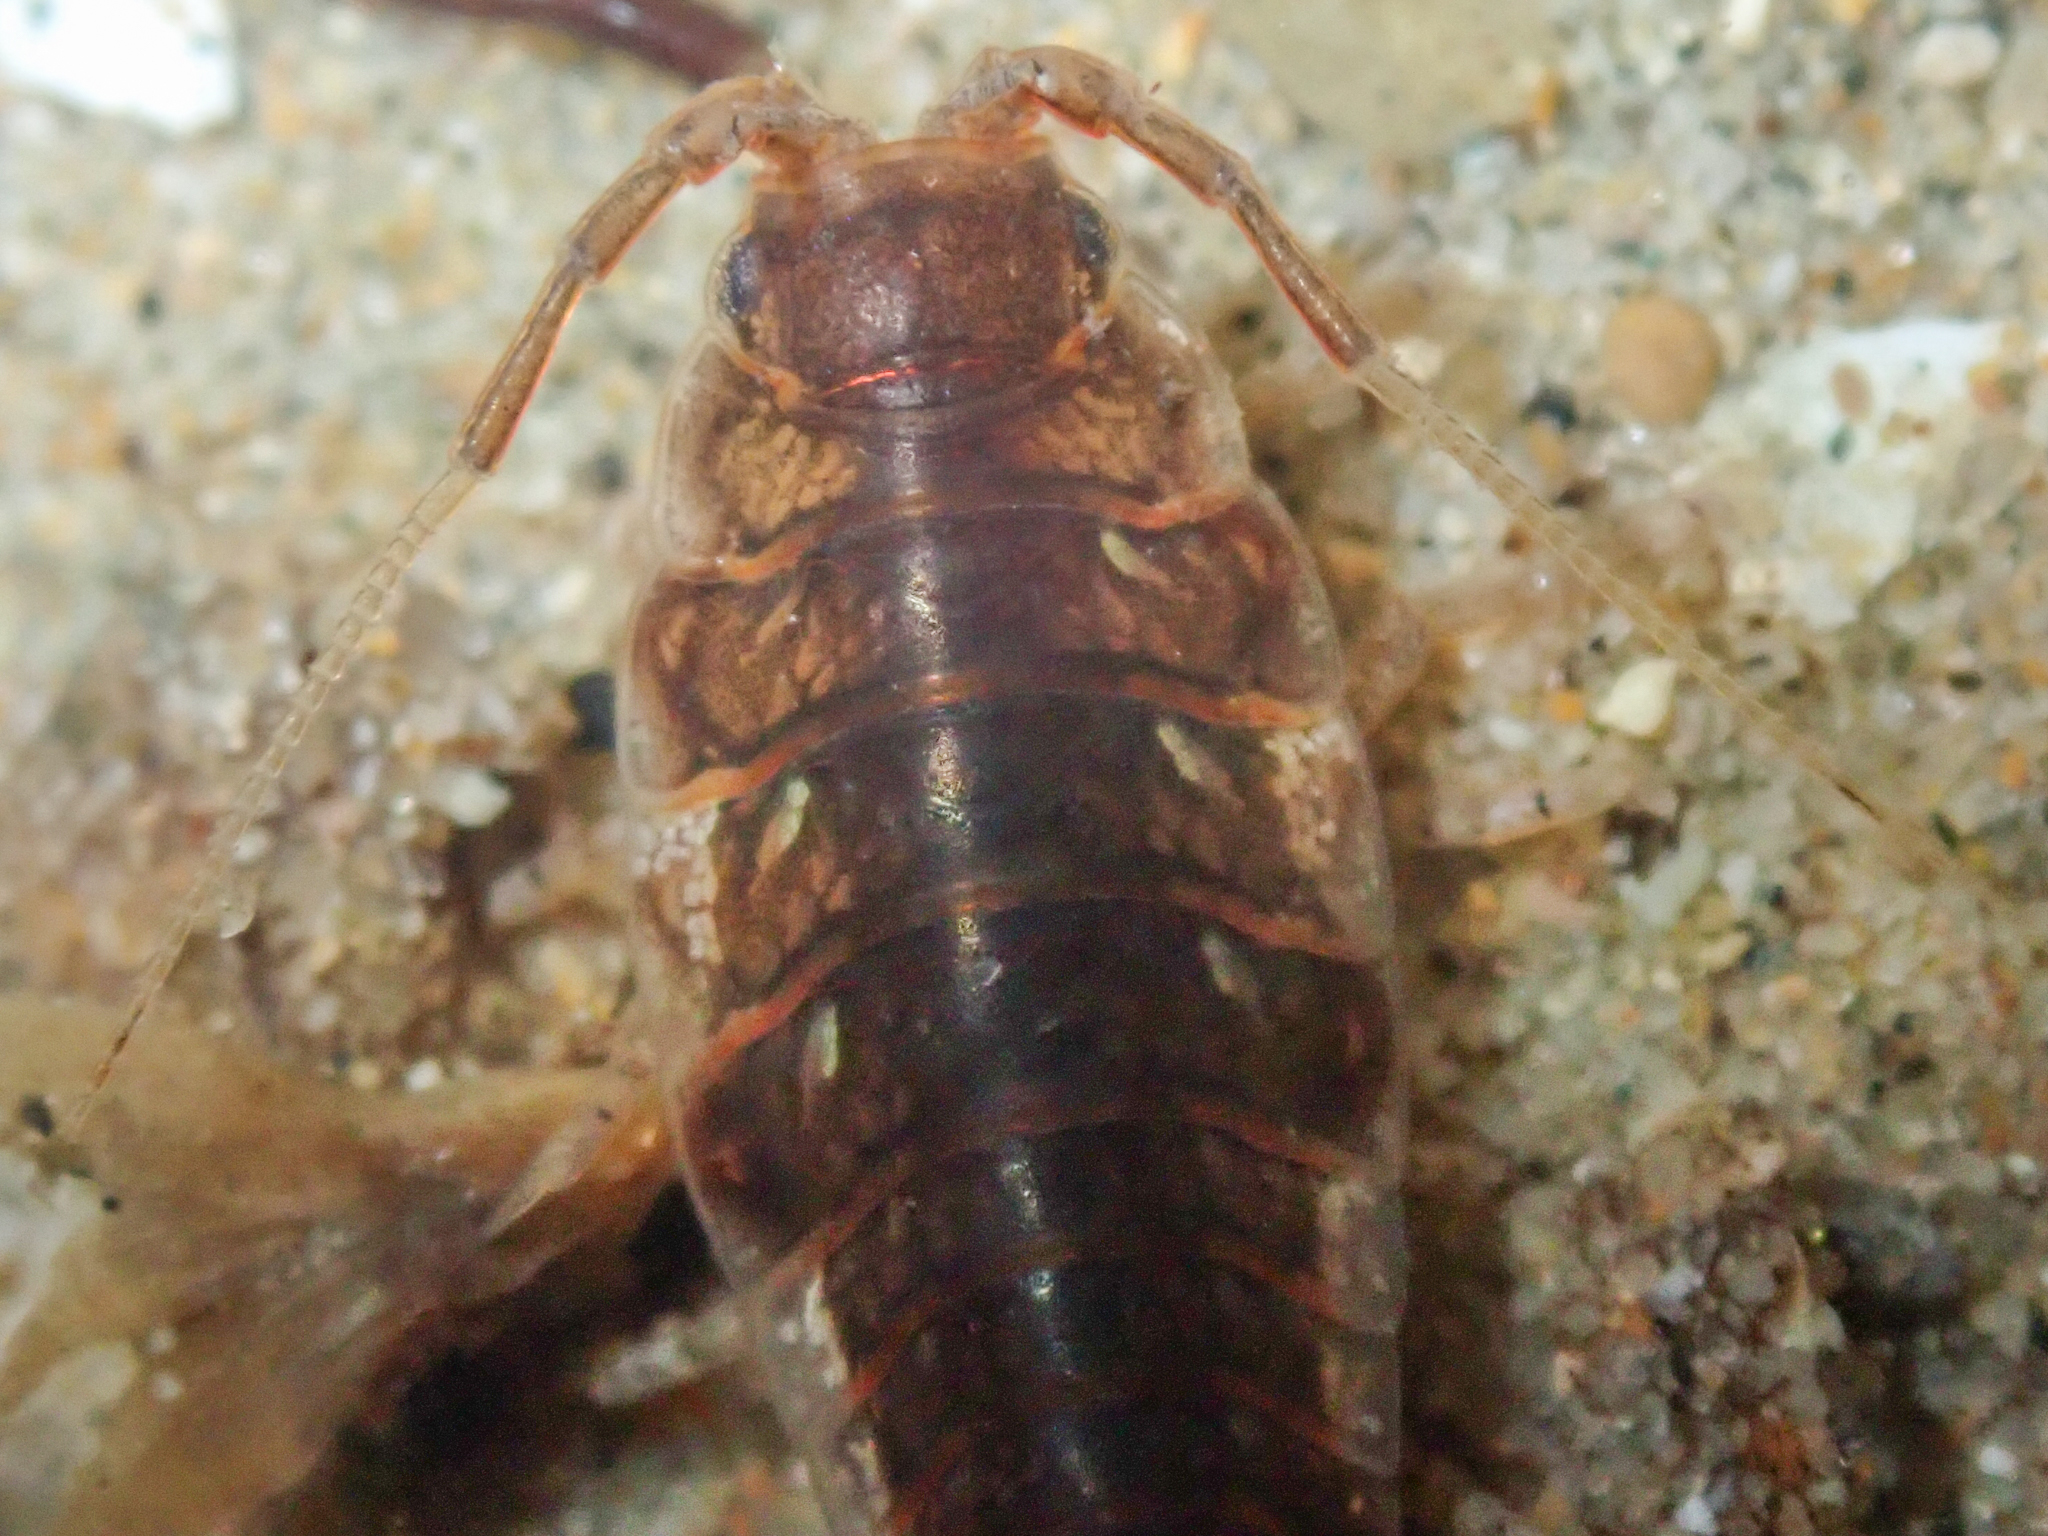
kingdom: Animalia
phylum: Arthropoda
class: Malacostraca
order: Isopoda
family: Idoteidae
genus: Synidotea
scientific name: Synidotea harfordi
